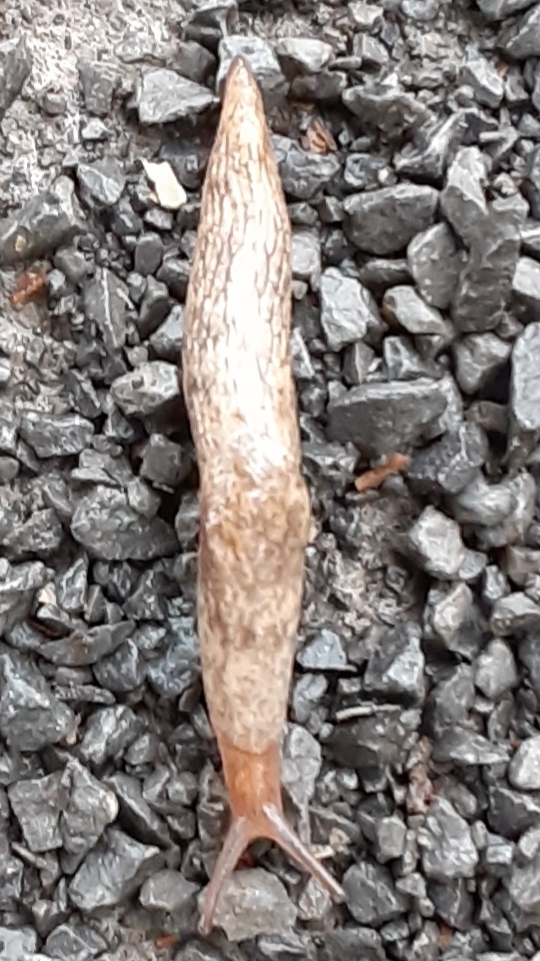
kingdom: Animalia
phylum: Mollusca
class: Gastropoda
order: Stylommatophora
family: Agriolimacidae
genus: Deroceras
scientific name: Deroceras reticulatum
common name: Gray field slug
